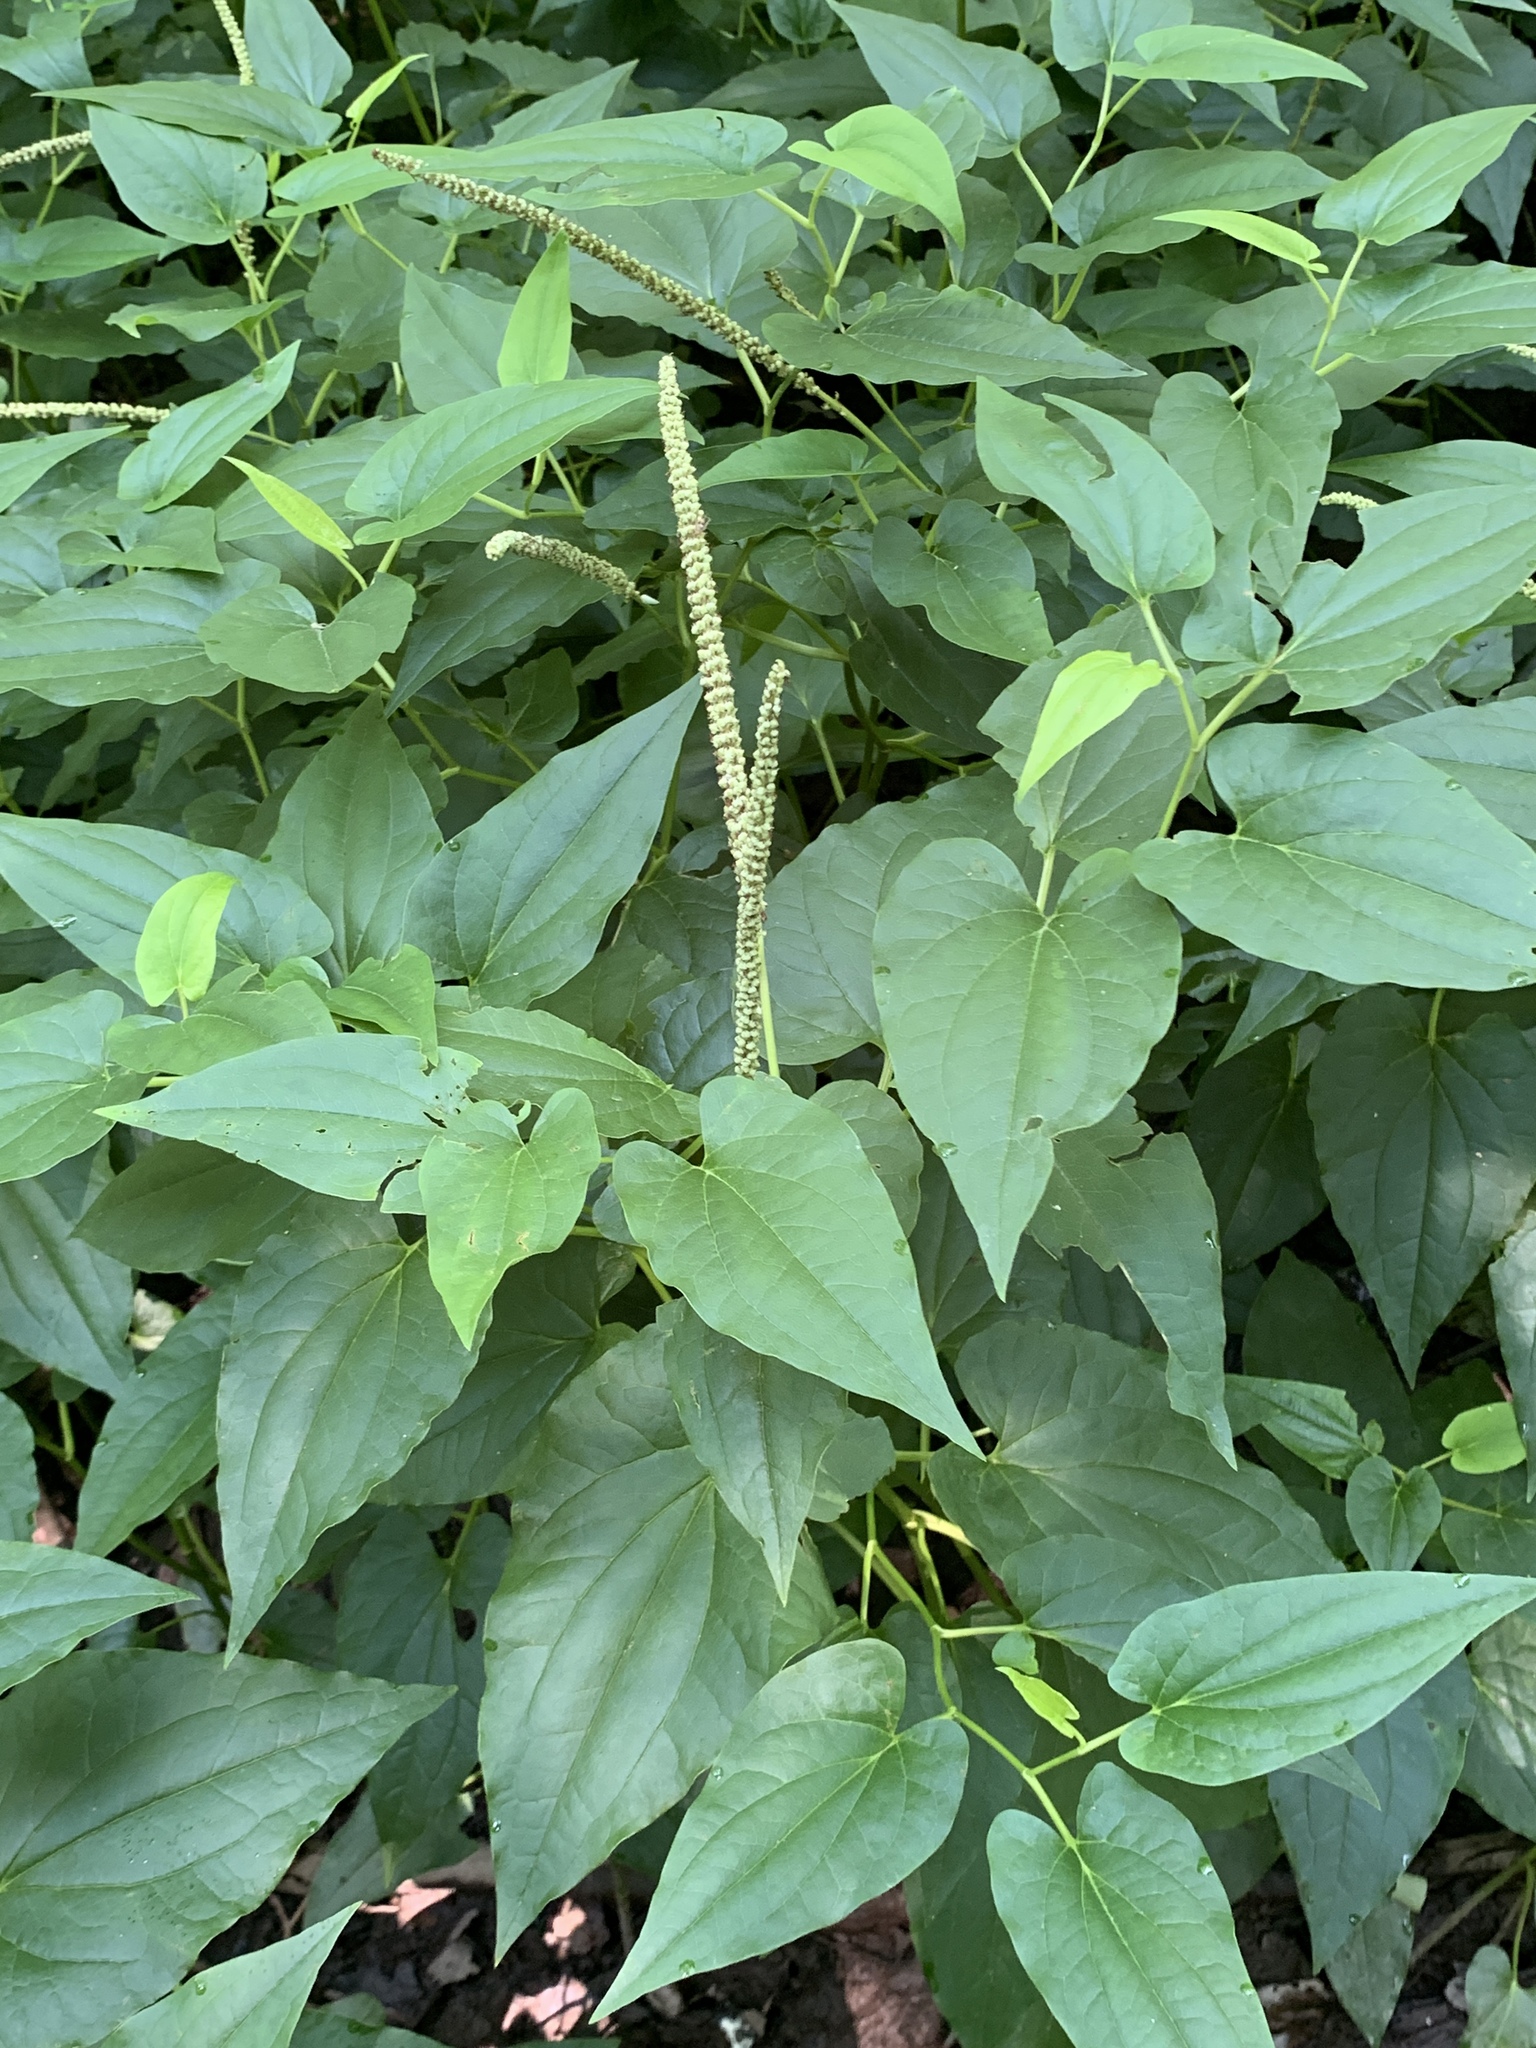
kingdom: Plantae
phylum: Tracheophyta
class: Magnoliopsida
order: Piperales
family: Saururaceae
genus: Saururus
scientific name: Saururus cernuus
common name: Lizard's-tail
